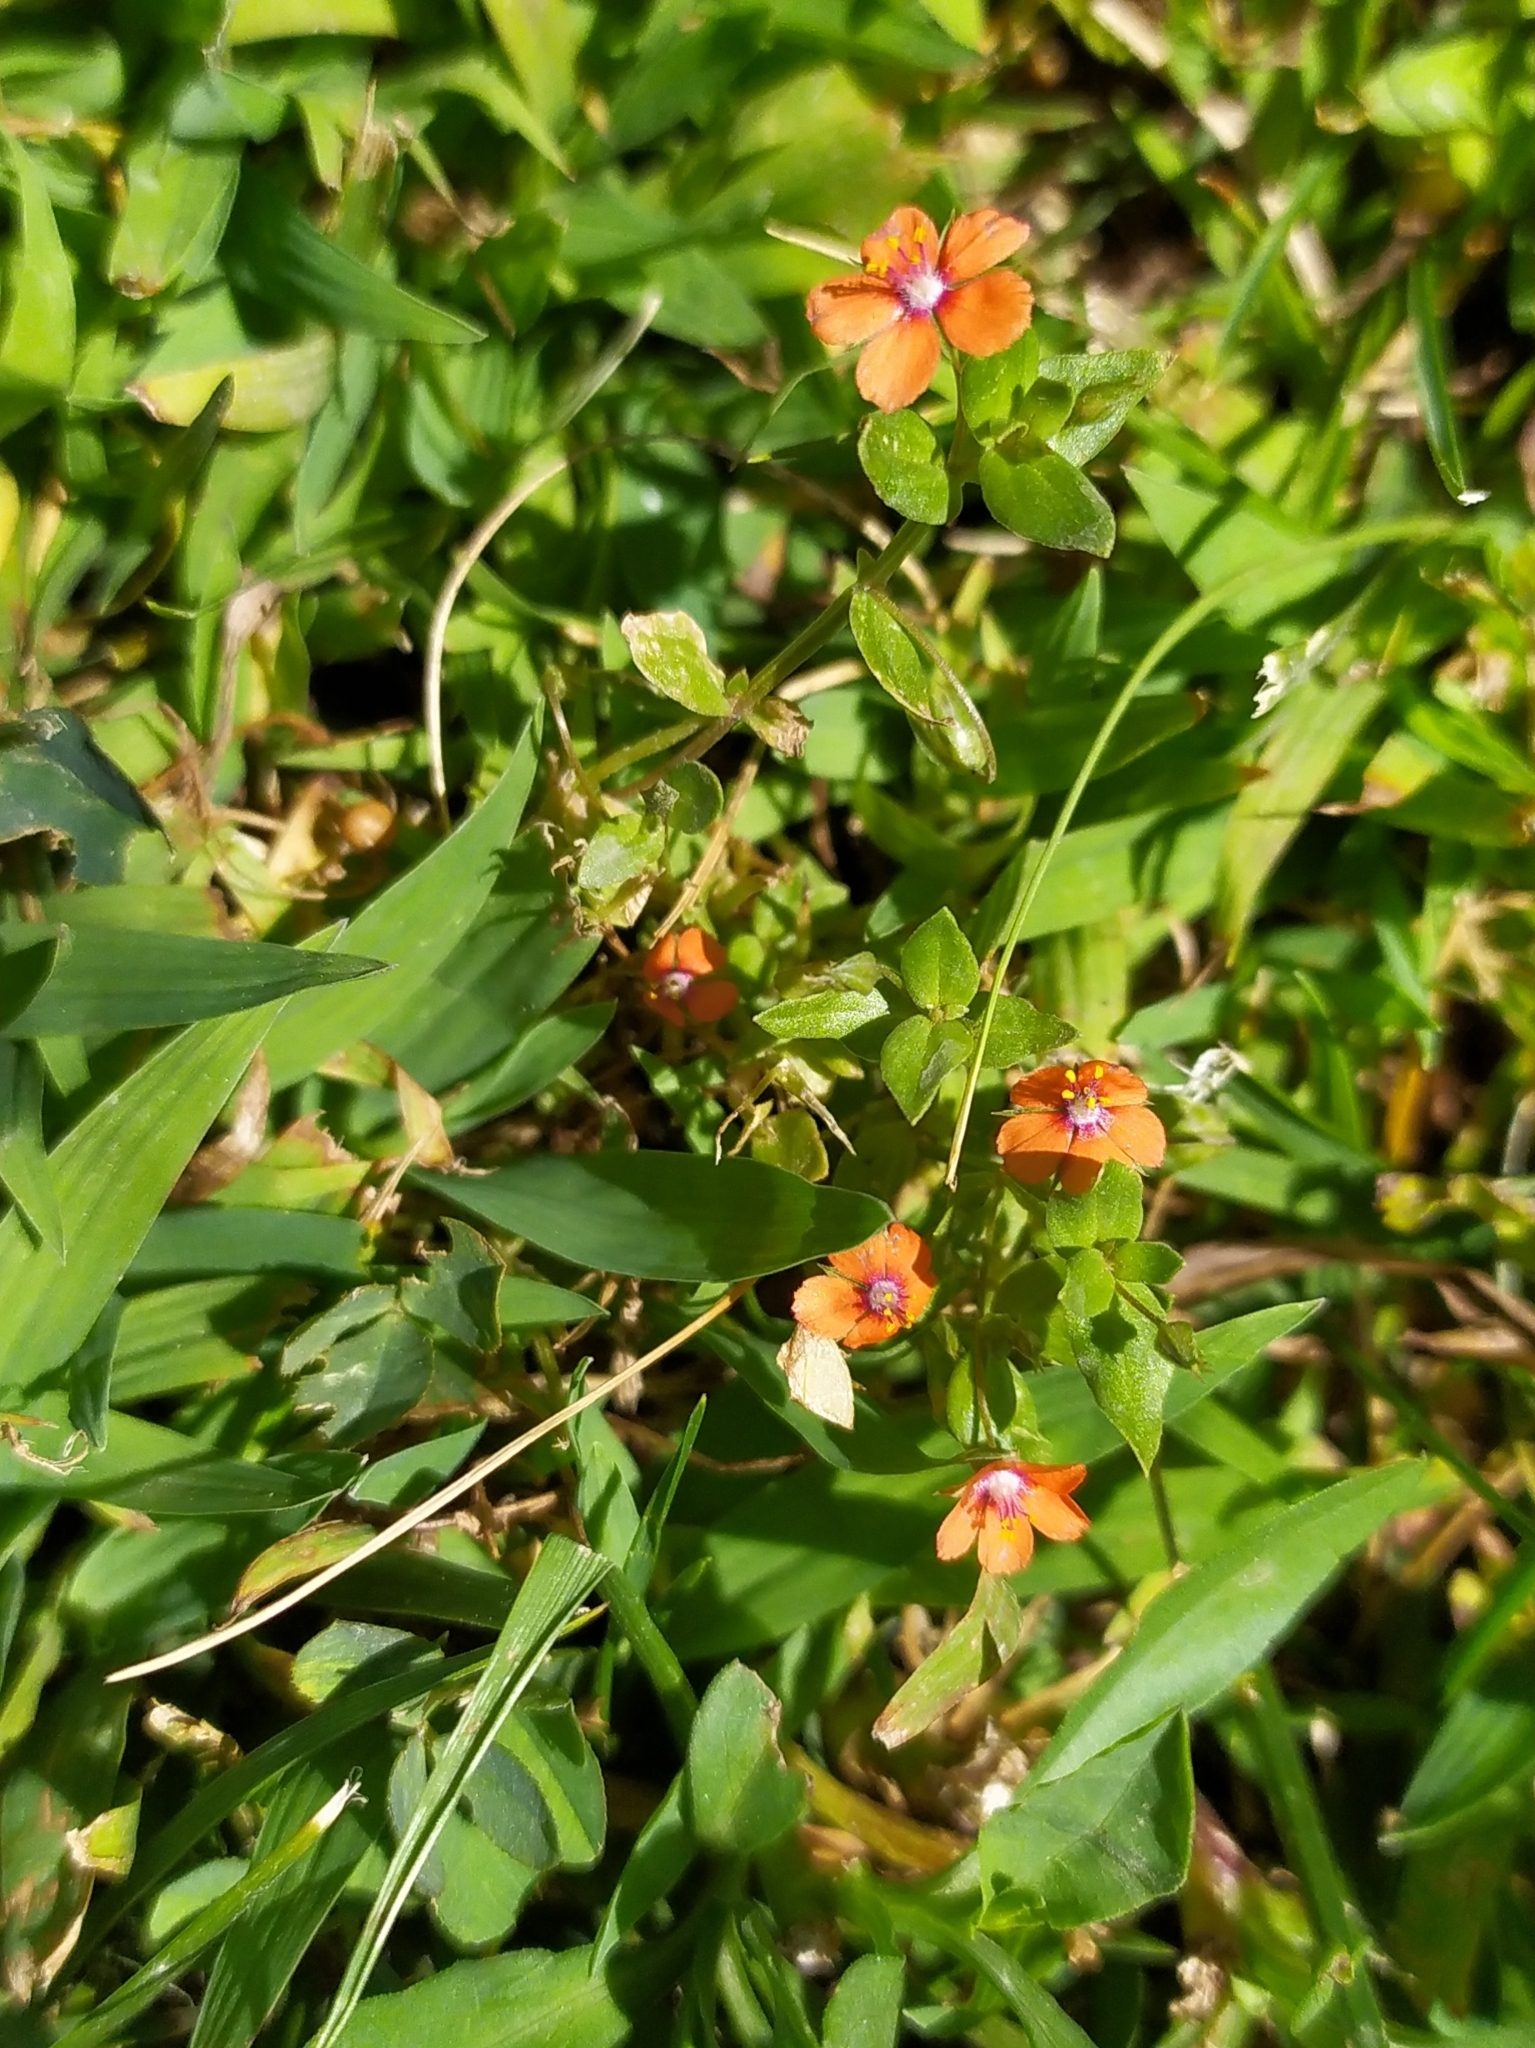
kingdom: Plantae
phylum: Tracheophyta
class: Magnoliopsida
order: Ericales
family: Primulaceae
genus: Lysimachia
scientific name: Lysimachia arvensis
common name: Scarlet pimpernel
